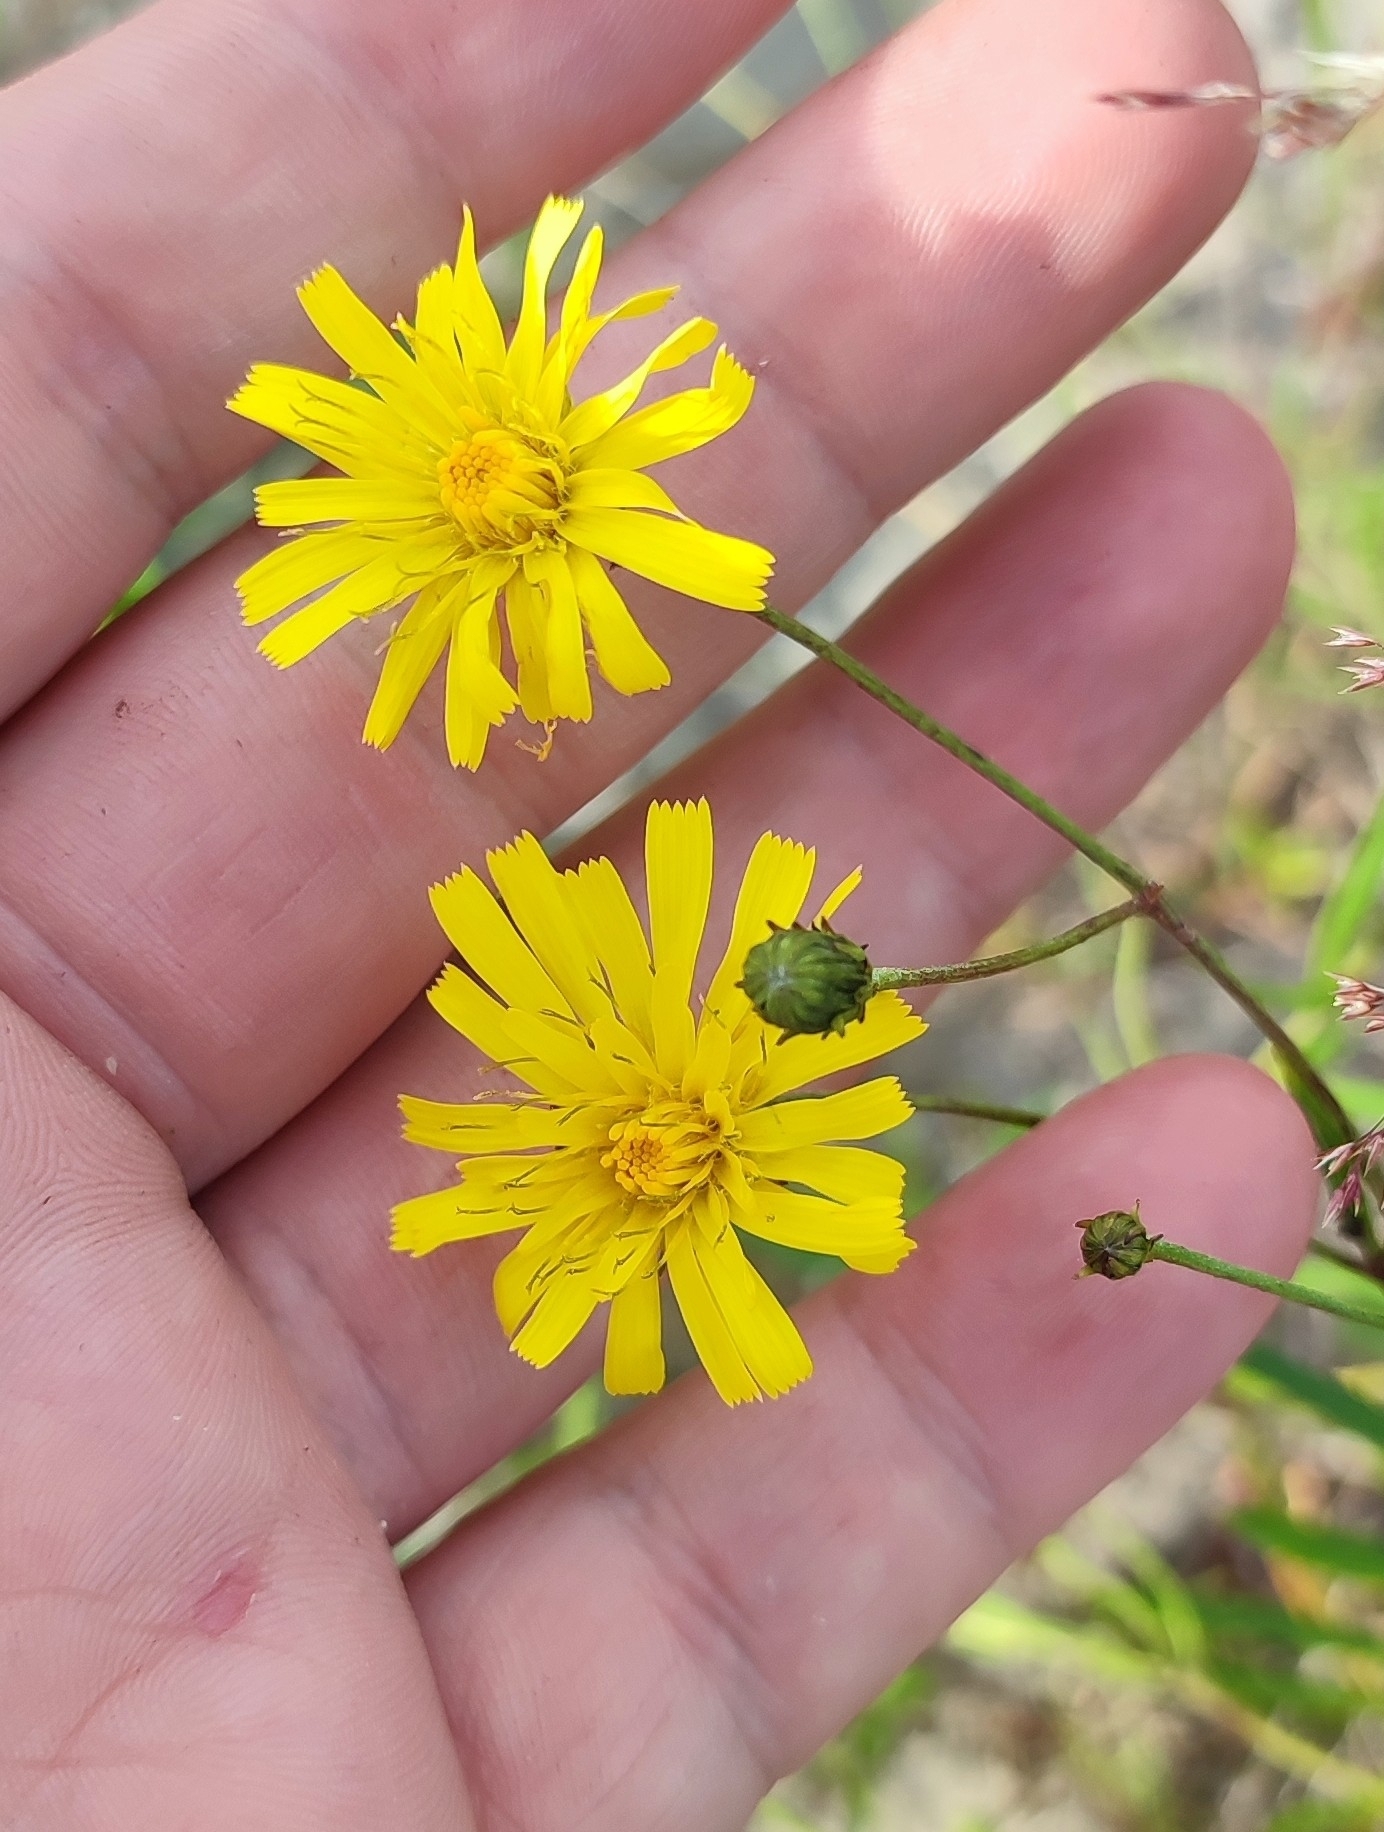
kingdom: Plantae
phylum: Tracheophyta
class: Magnoliopsida
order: Asterales
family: Asteraceae
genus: Hieracium
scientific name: Hieracium umbellatum
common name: Northern hawkweed
